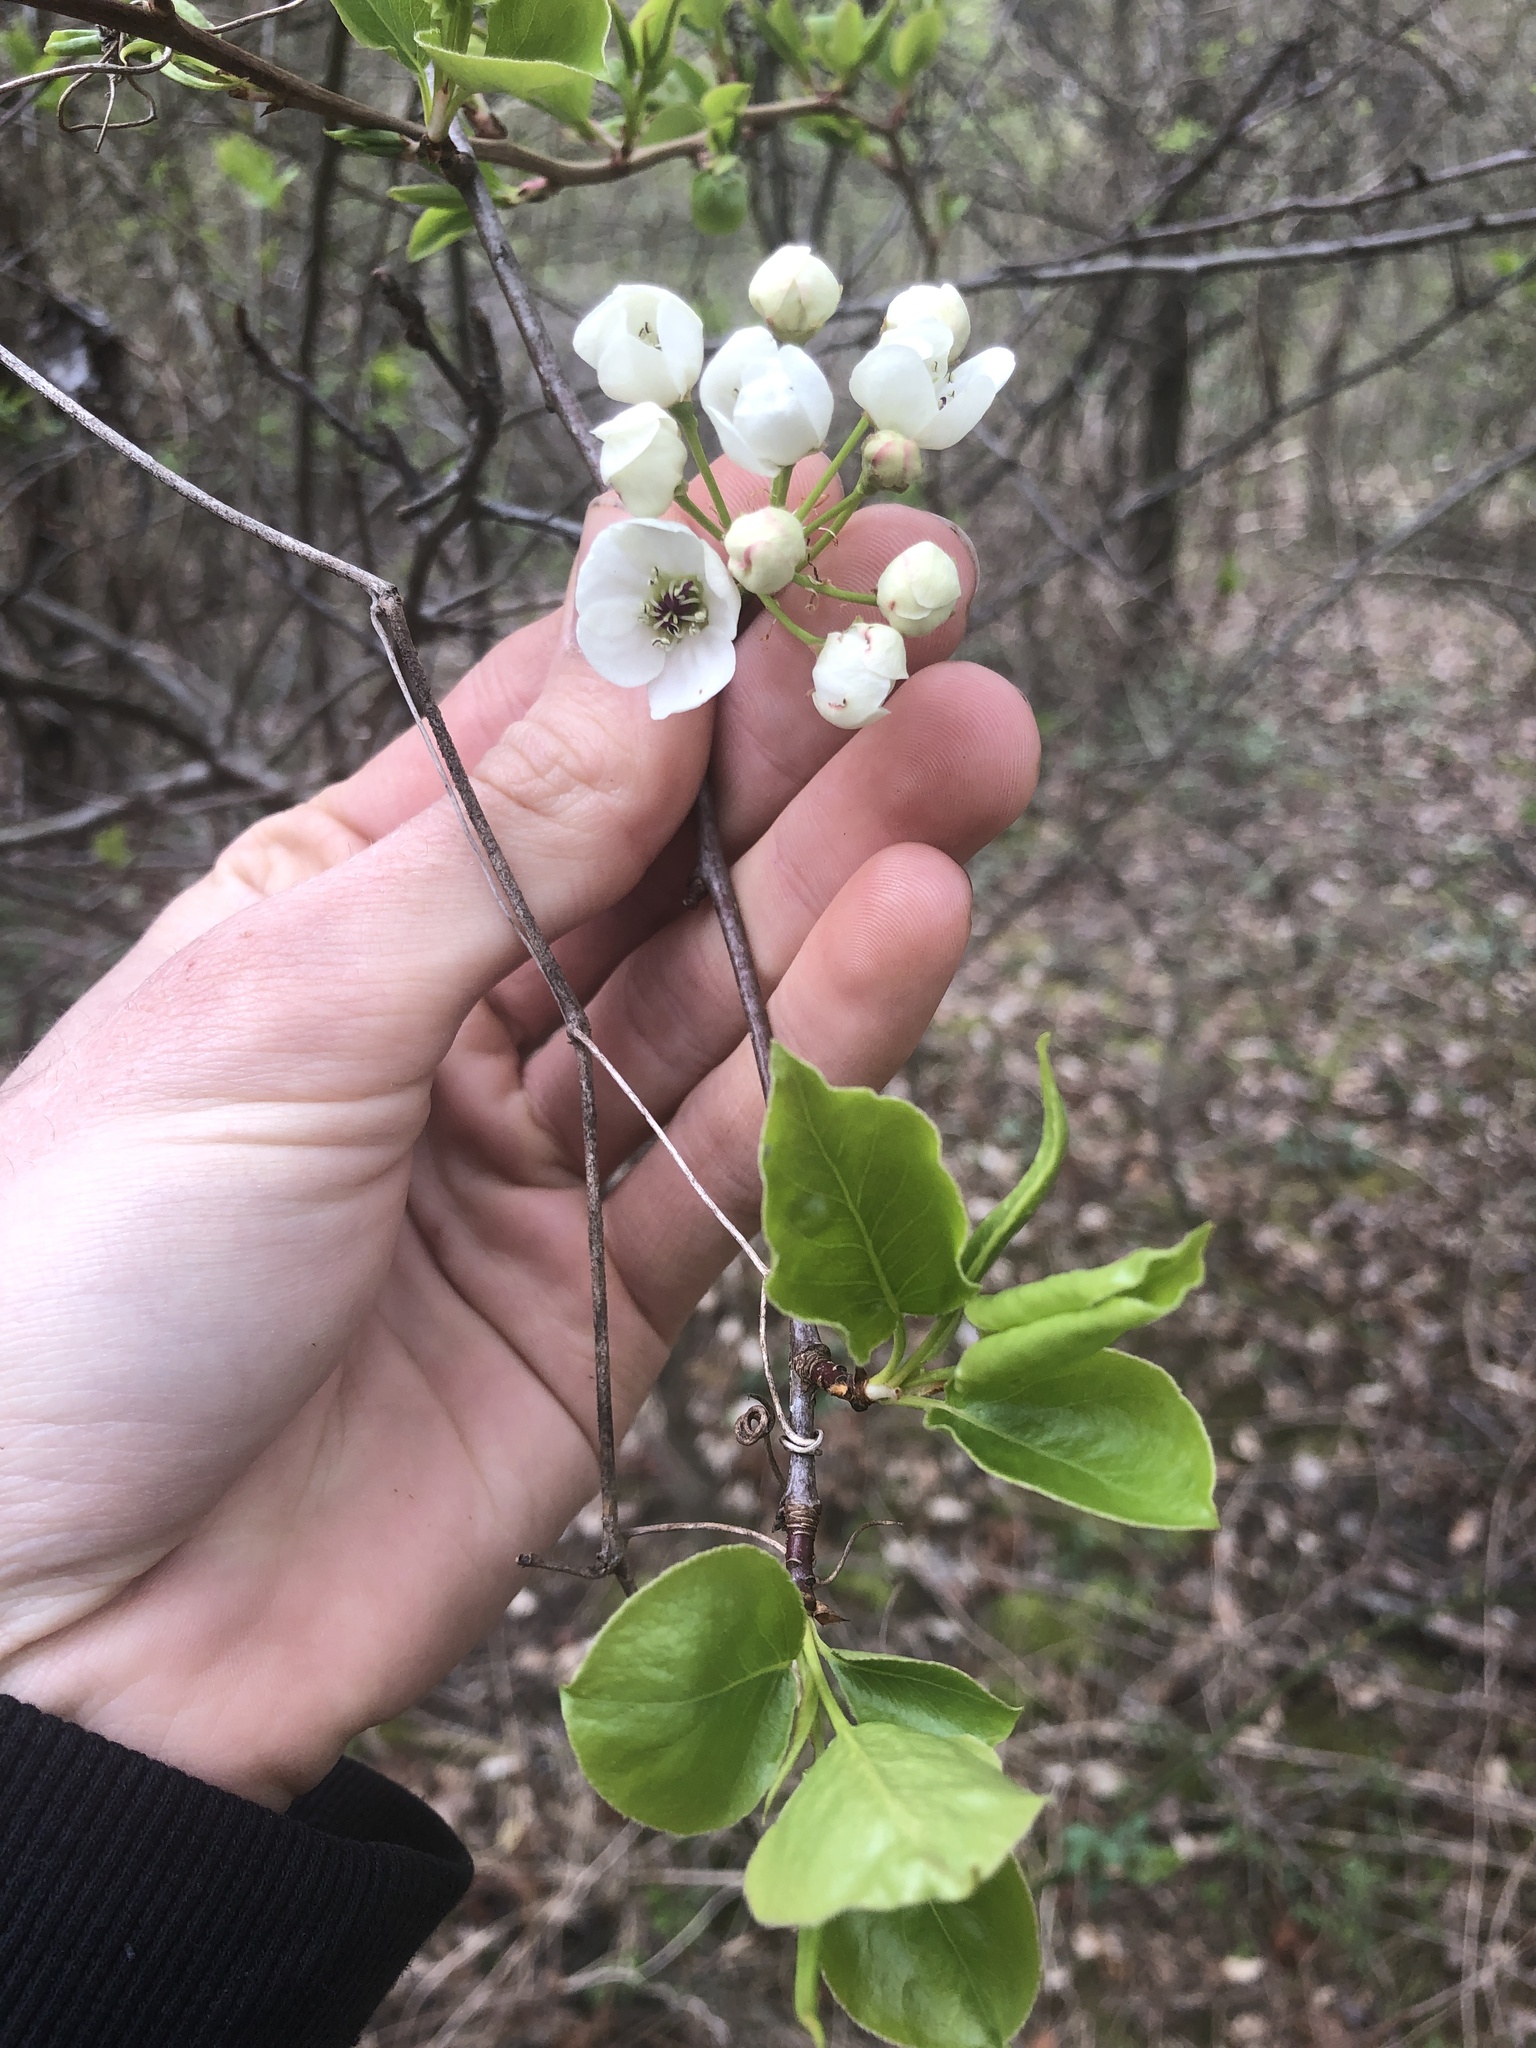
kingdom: Plantae
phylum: Tracheophyta
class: Magnoliopsida
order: Rosales
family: Rosaceae
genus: Pyrus
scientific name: Pyrus calleryana
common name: Callery pear
